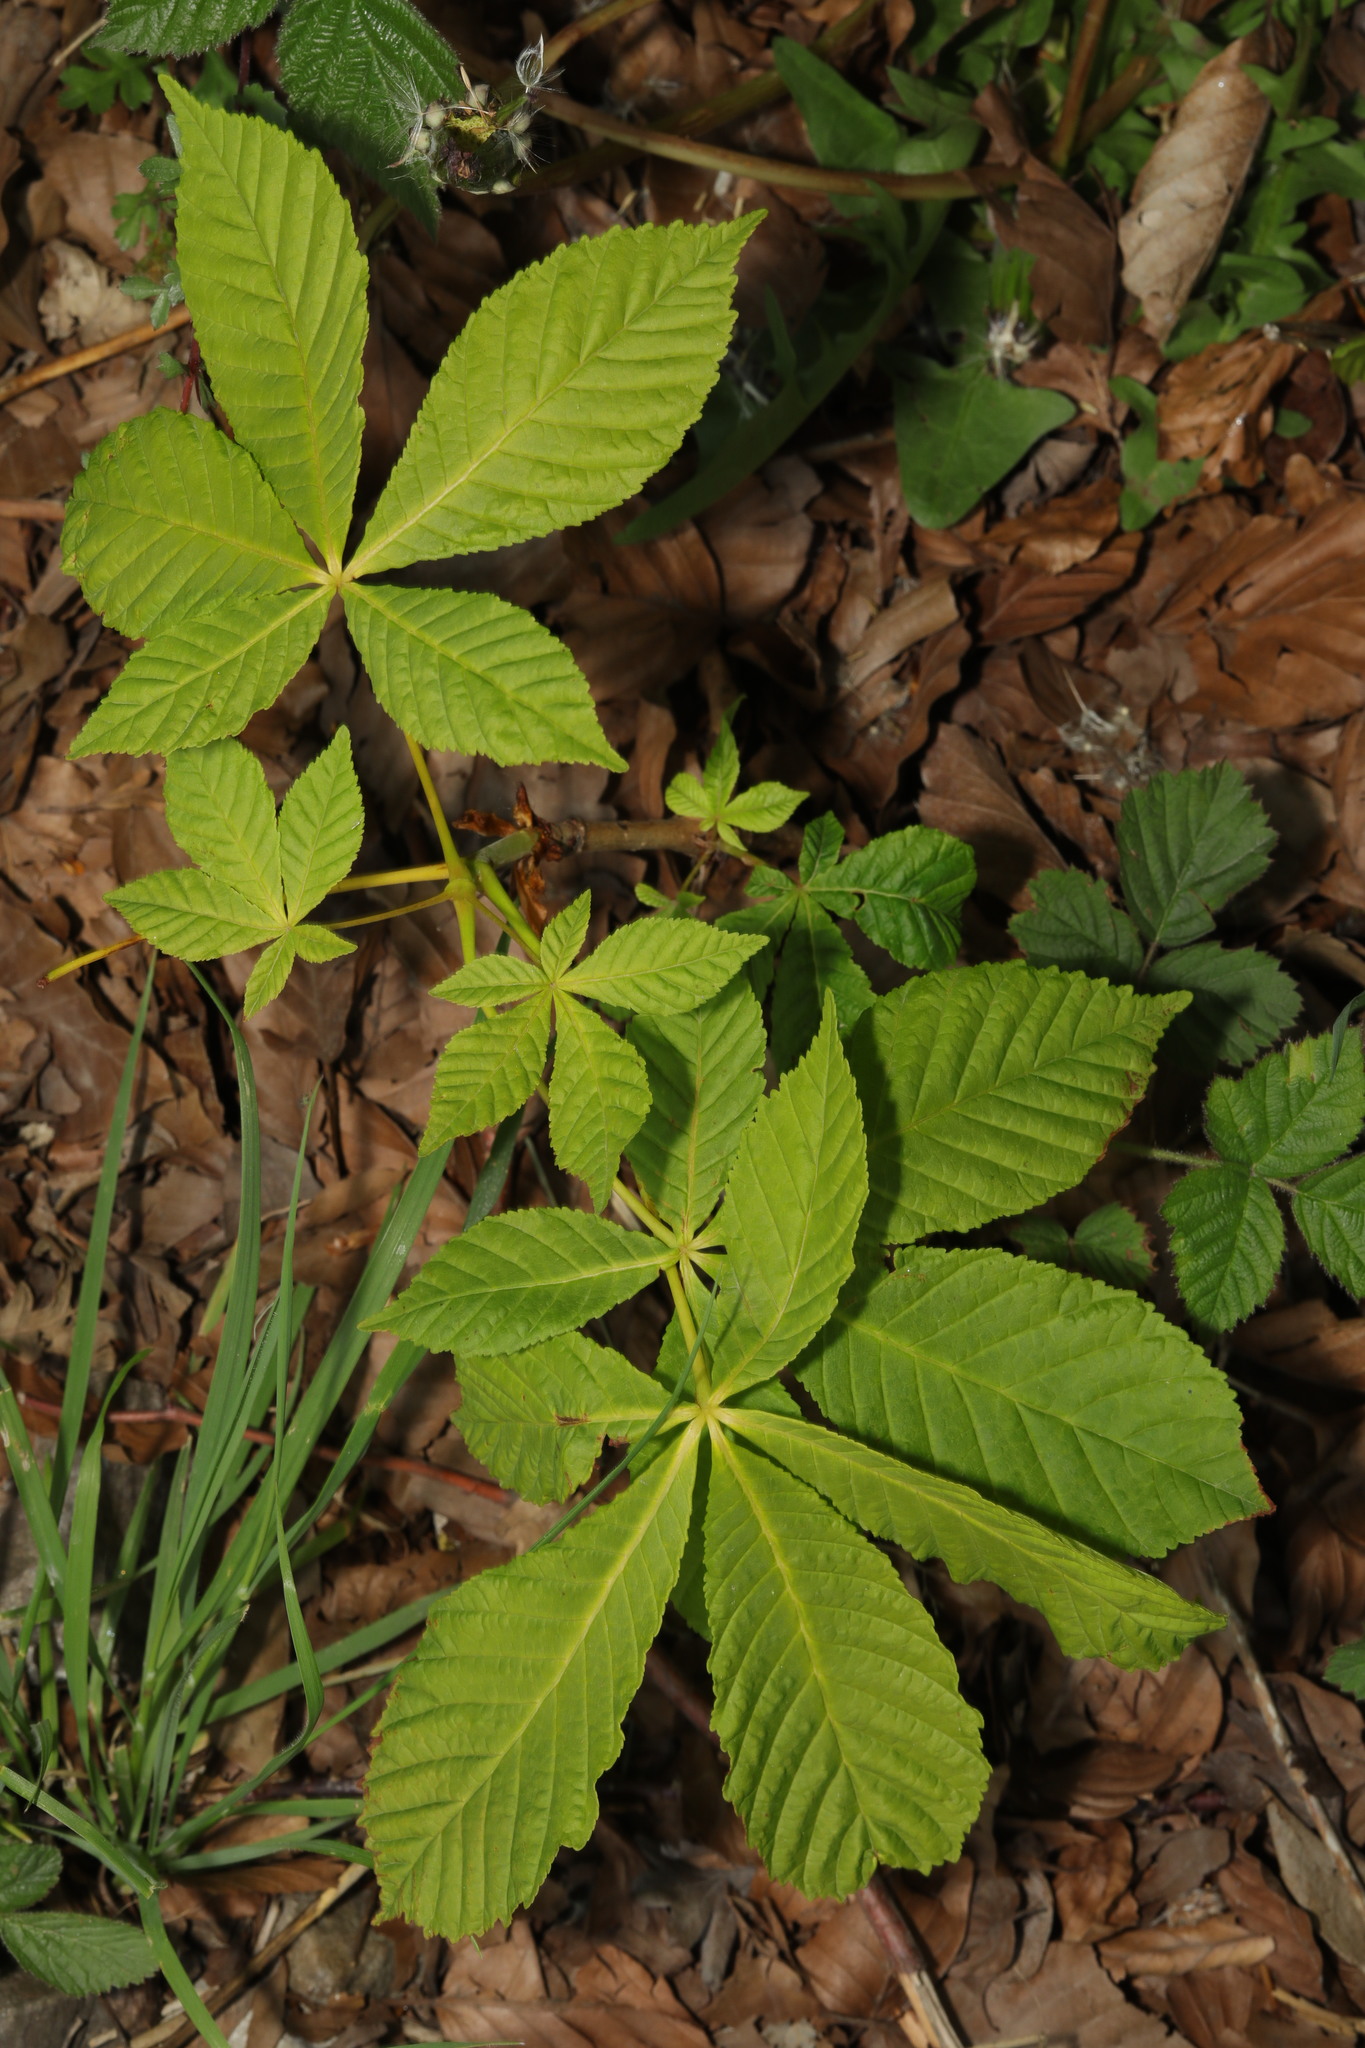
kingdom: Plantae
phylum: Tracheophyta
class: Magnoliopsida
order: Sapindales
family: Sapindaceae
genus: Aesculus
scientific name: Aesculus hippocastanum
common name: Horse-chestnut
